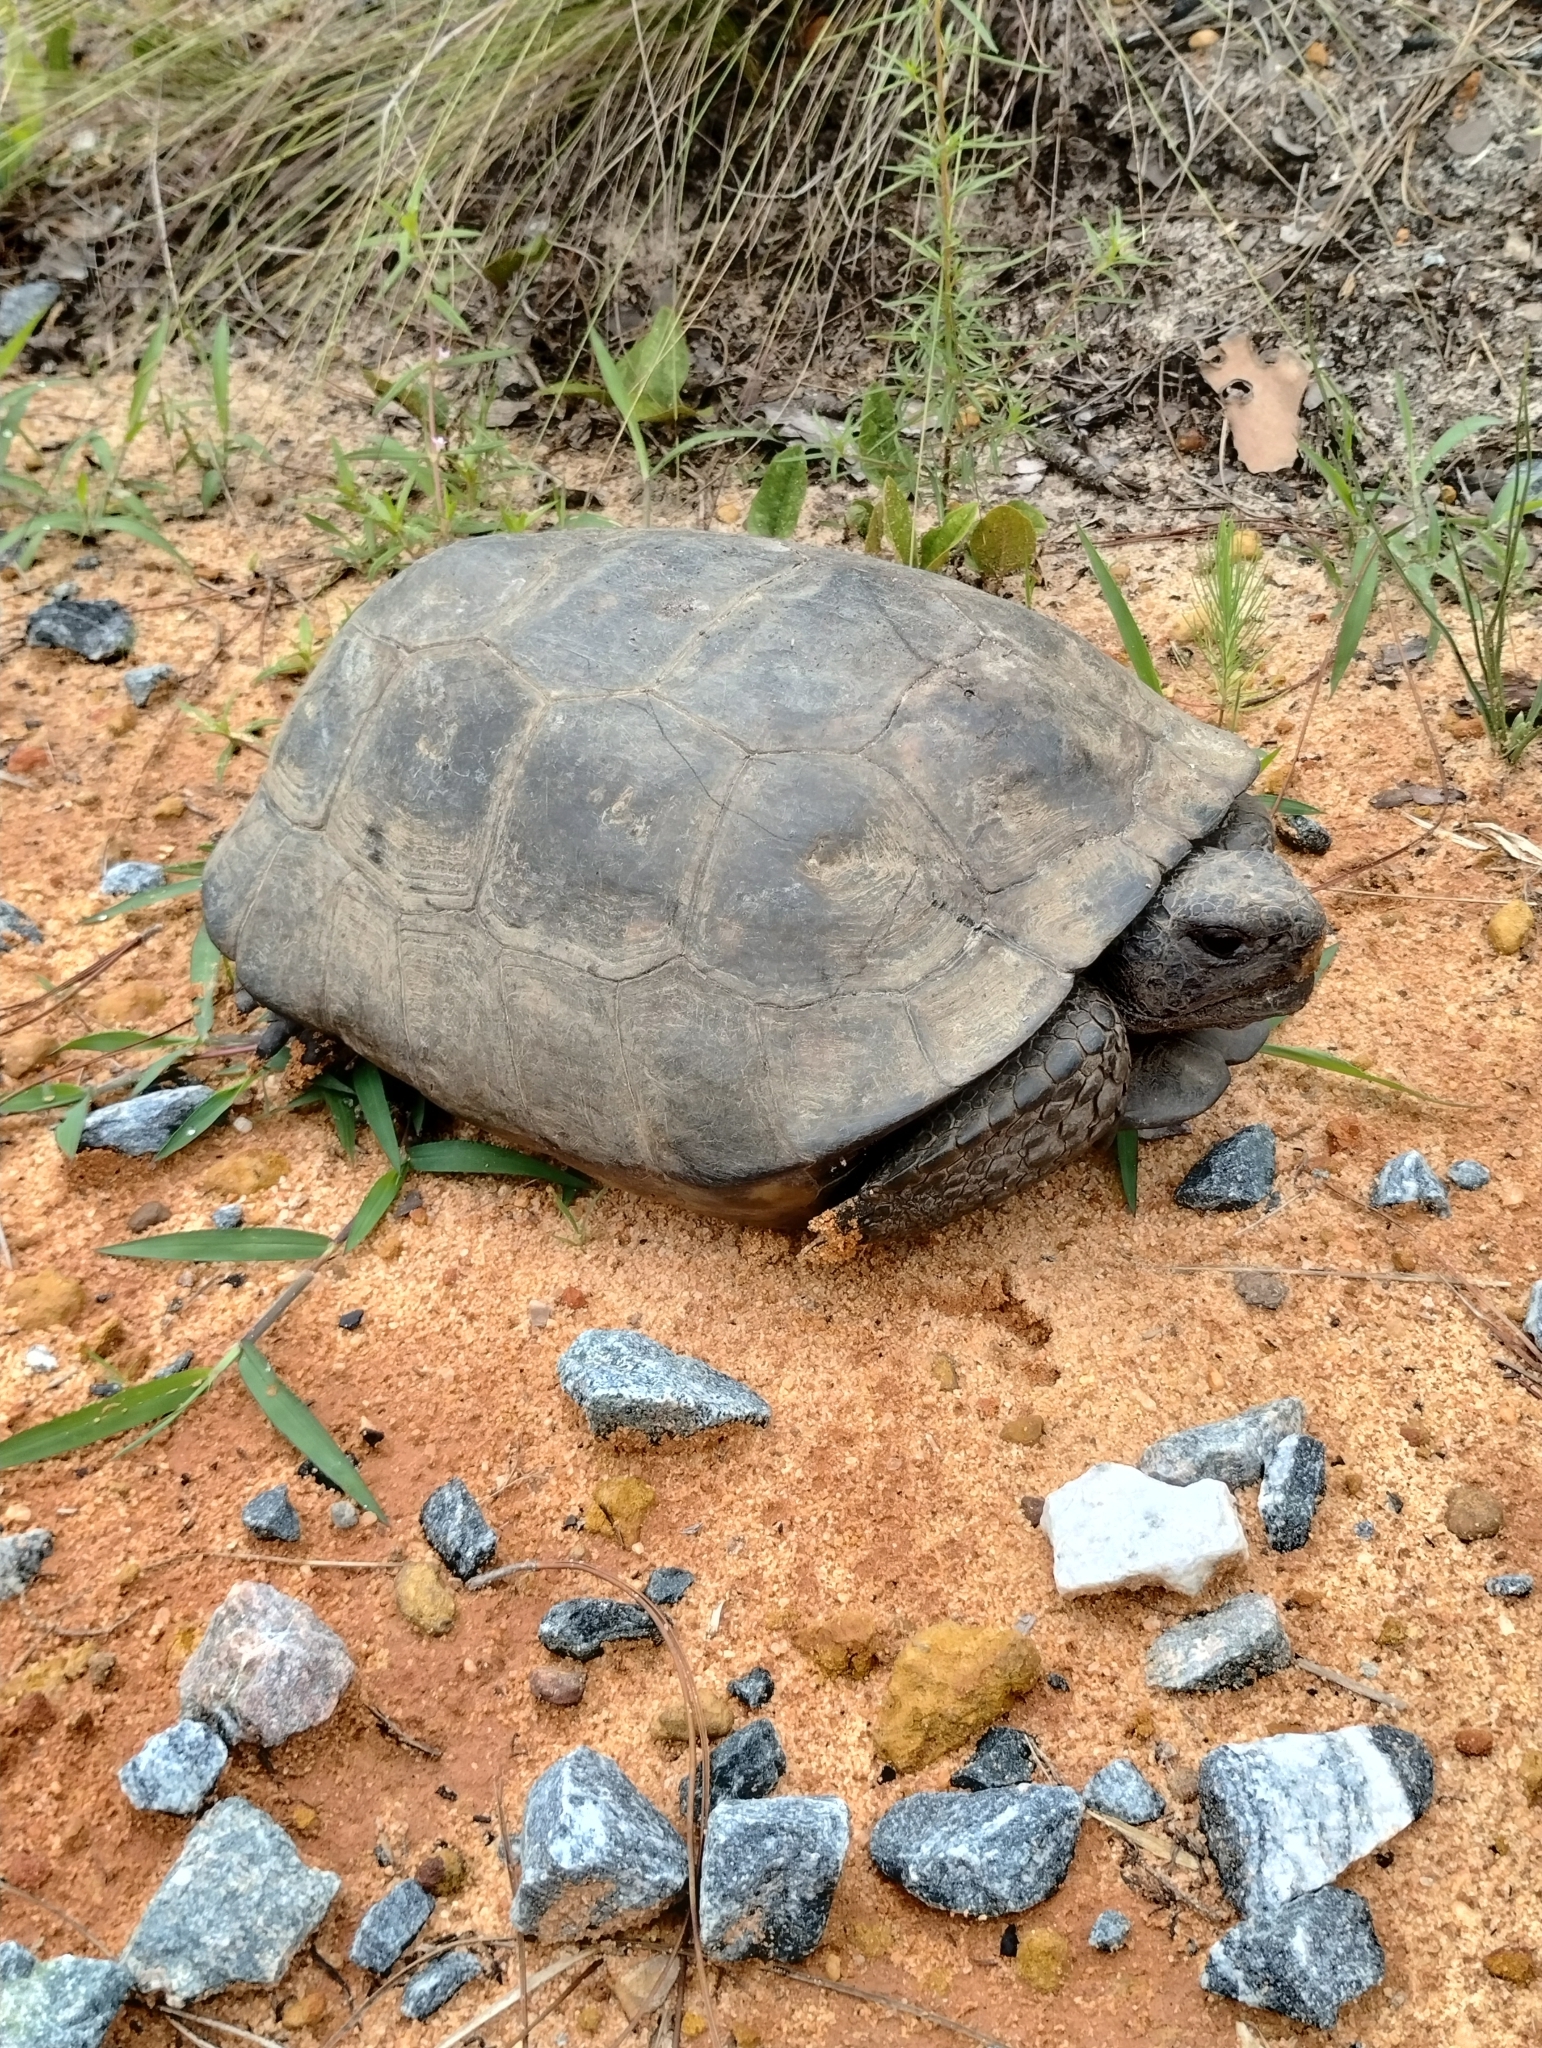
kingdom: Animalia
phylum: Chordata
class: Testudines
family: Testudinidae
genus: Gopherus
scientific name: Gopherus polyphemus
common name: Florida gopher tortoise
